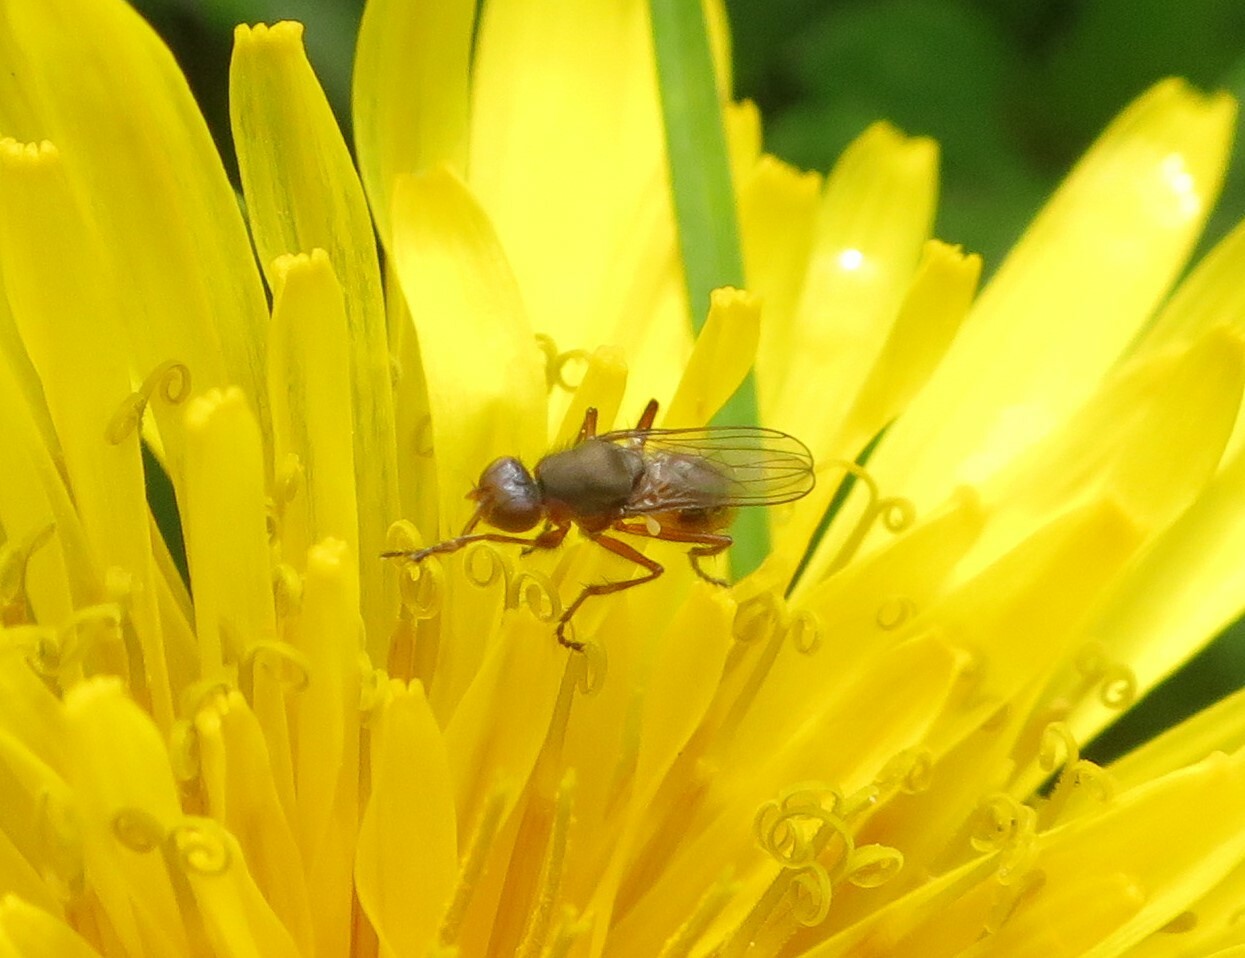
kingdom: Animalia
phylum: Arthropoda
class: Insecta
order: Diptera
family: Sepsidae
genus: Lasionemopoda
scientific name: Lasionemopoda hirsuta
